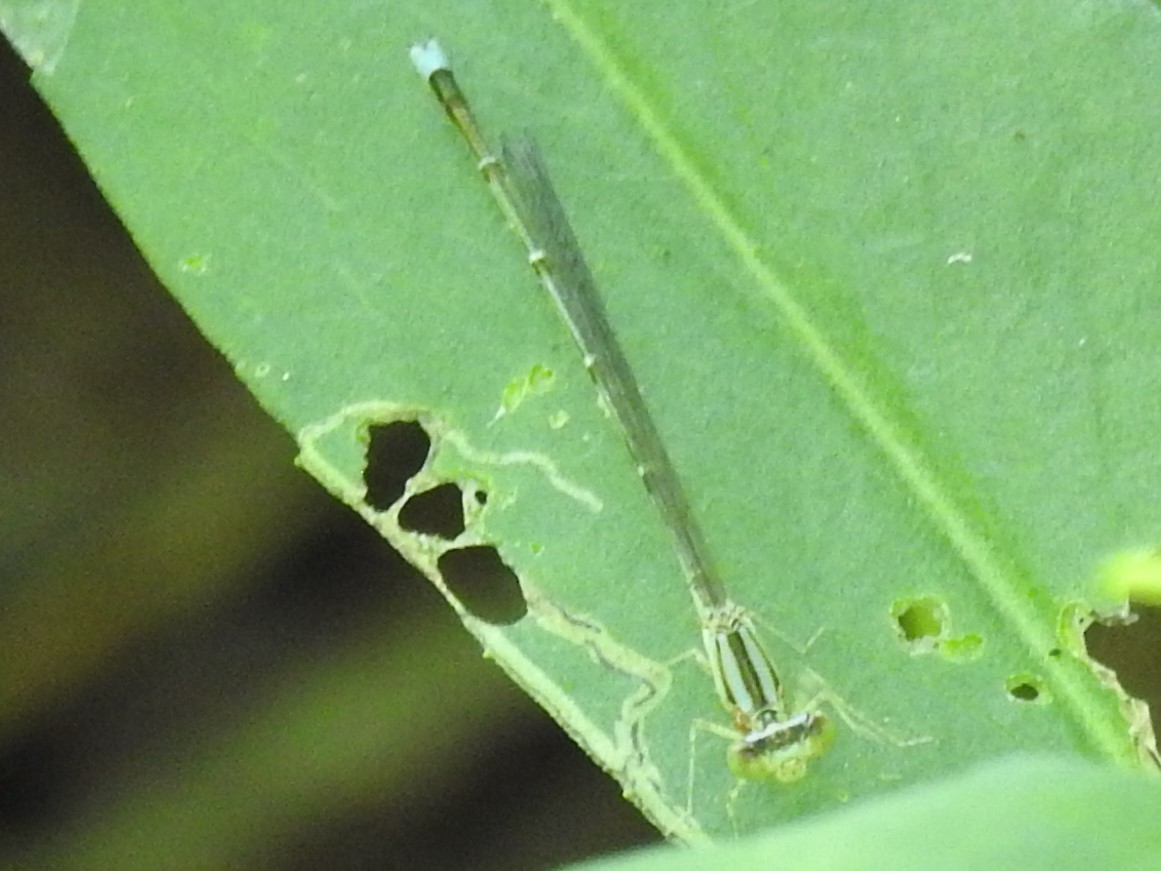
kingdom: Animalia
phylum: Arthropoda
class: Insecta
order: Odonata
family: Coenagrionidae
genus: Enallagma
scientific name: Enallagma vesperum
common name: Vesper bluet
